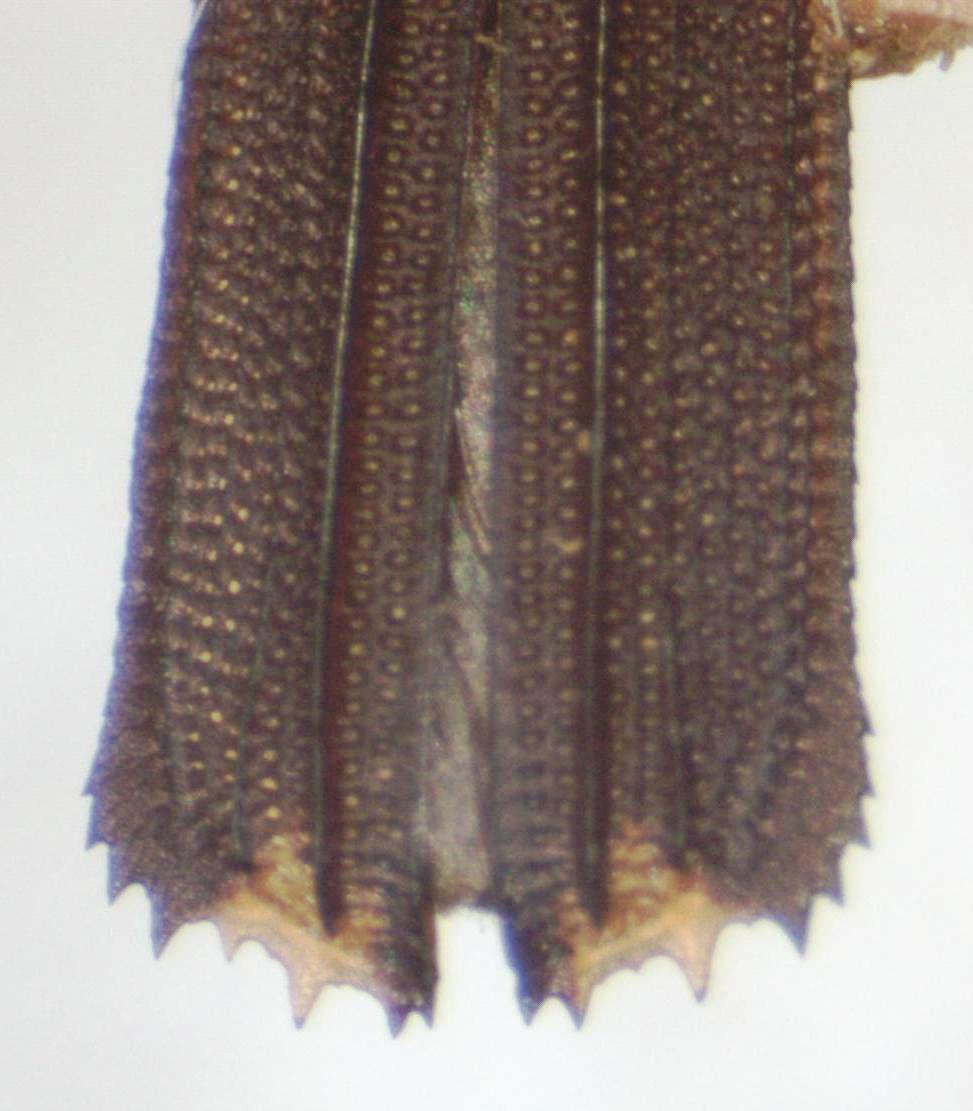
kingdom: Animalia
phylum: Arthropoda
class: Insecta
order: Coleoptera
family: Chrysomelidae
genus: Heterispa
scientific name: Heterispa vinula
